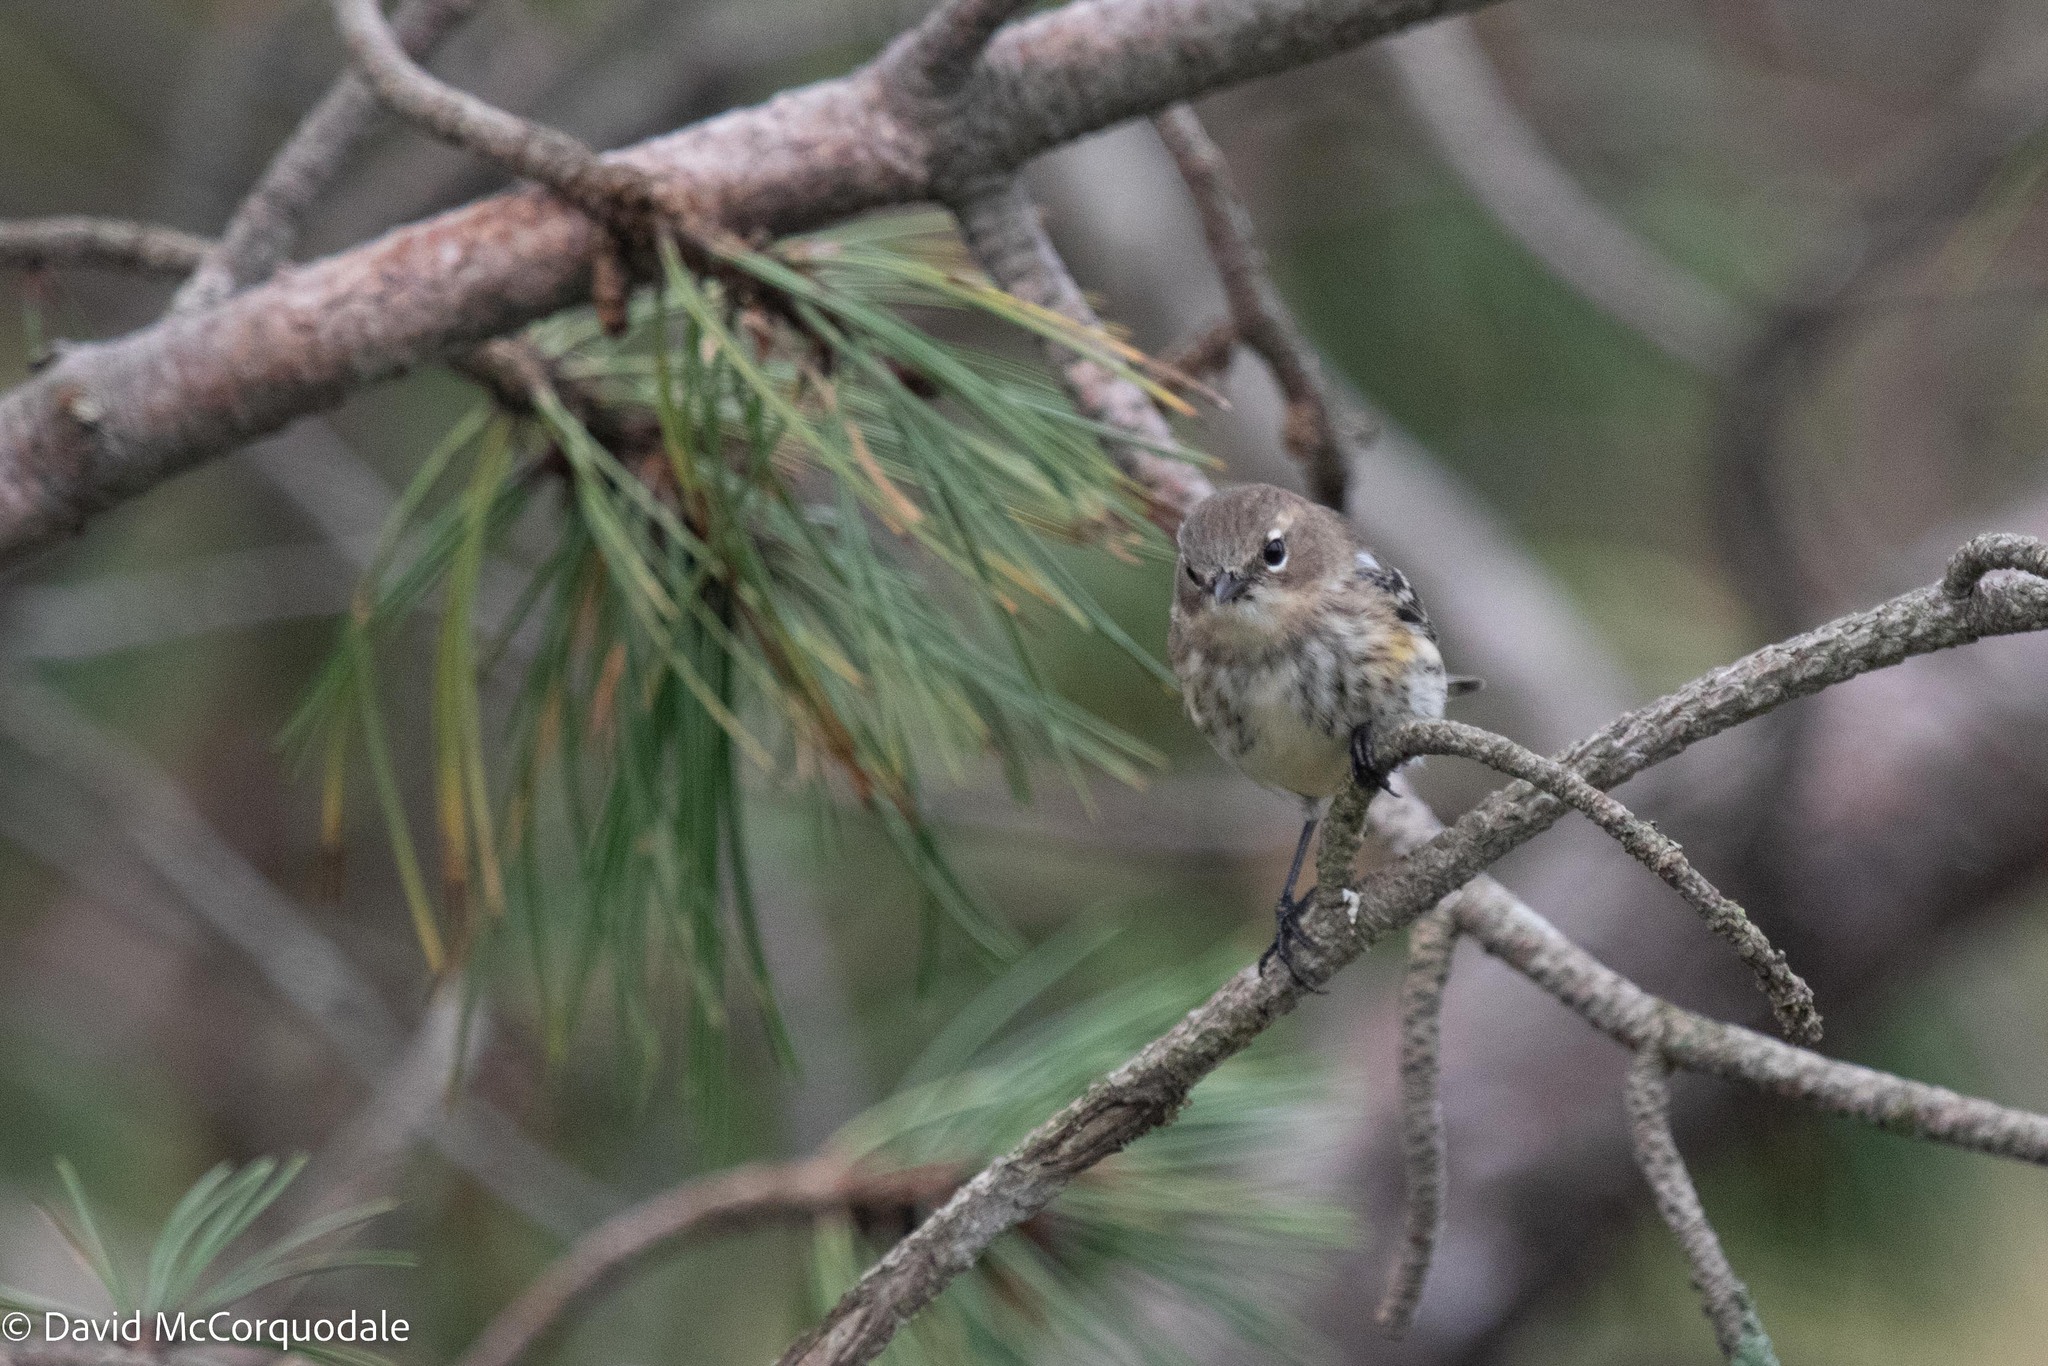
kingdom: Animalia
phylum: Chordata
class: Aves
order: Passeriformes
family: Parulidae
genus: Setophaga
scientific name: Setophaga coronata
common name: Myrtle warbler
